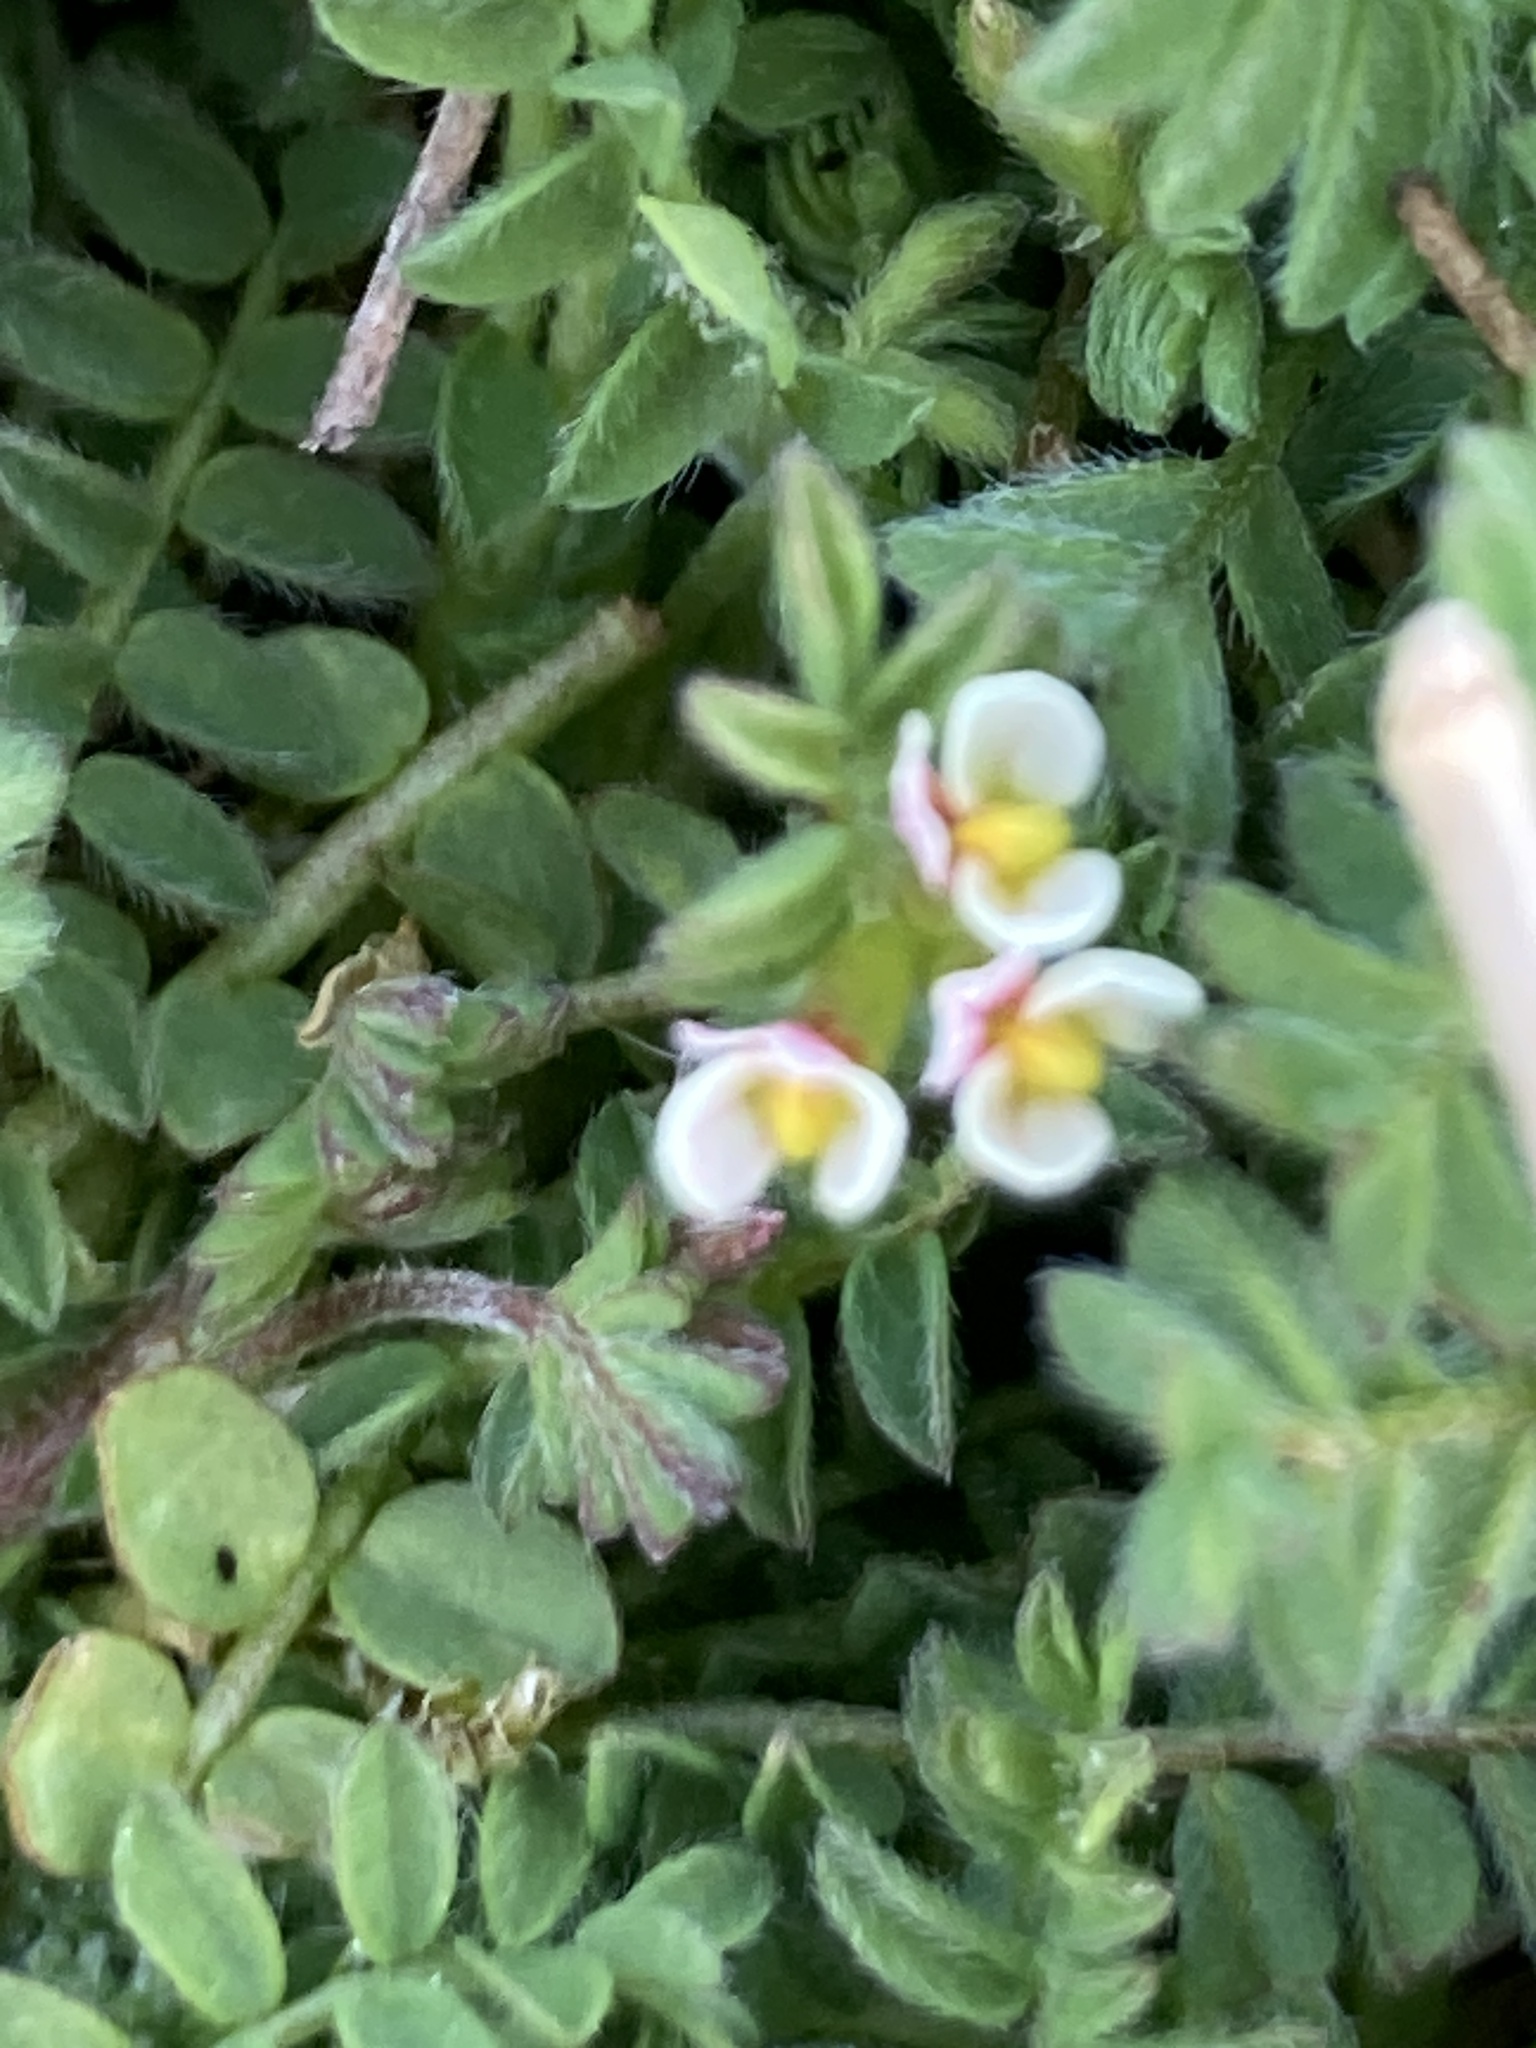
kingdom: Plantae
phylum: Tracheophyta
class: Magnoliopsida
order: Fabales
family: Fabaceae
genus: Ornithopus
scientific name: Ornithopus perpusillus
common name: Bird's-foot
